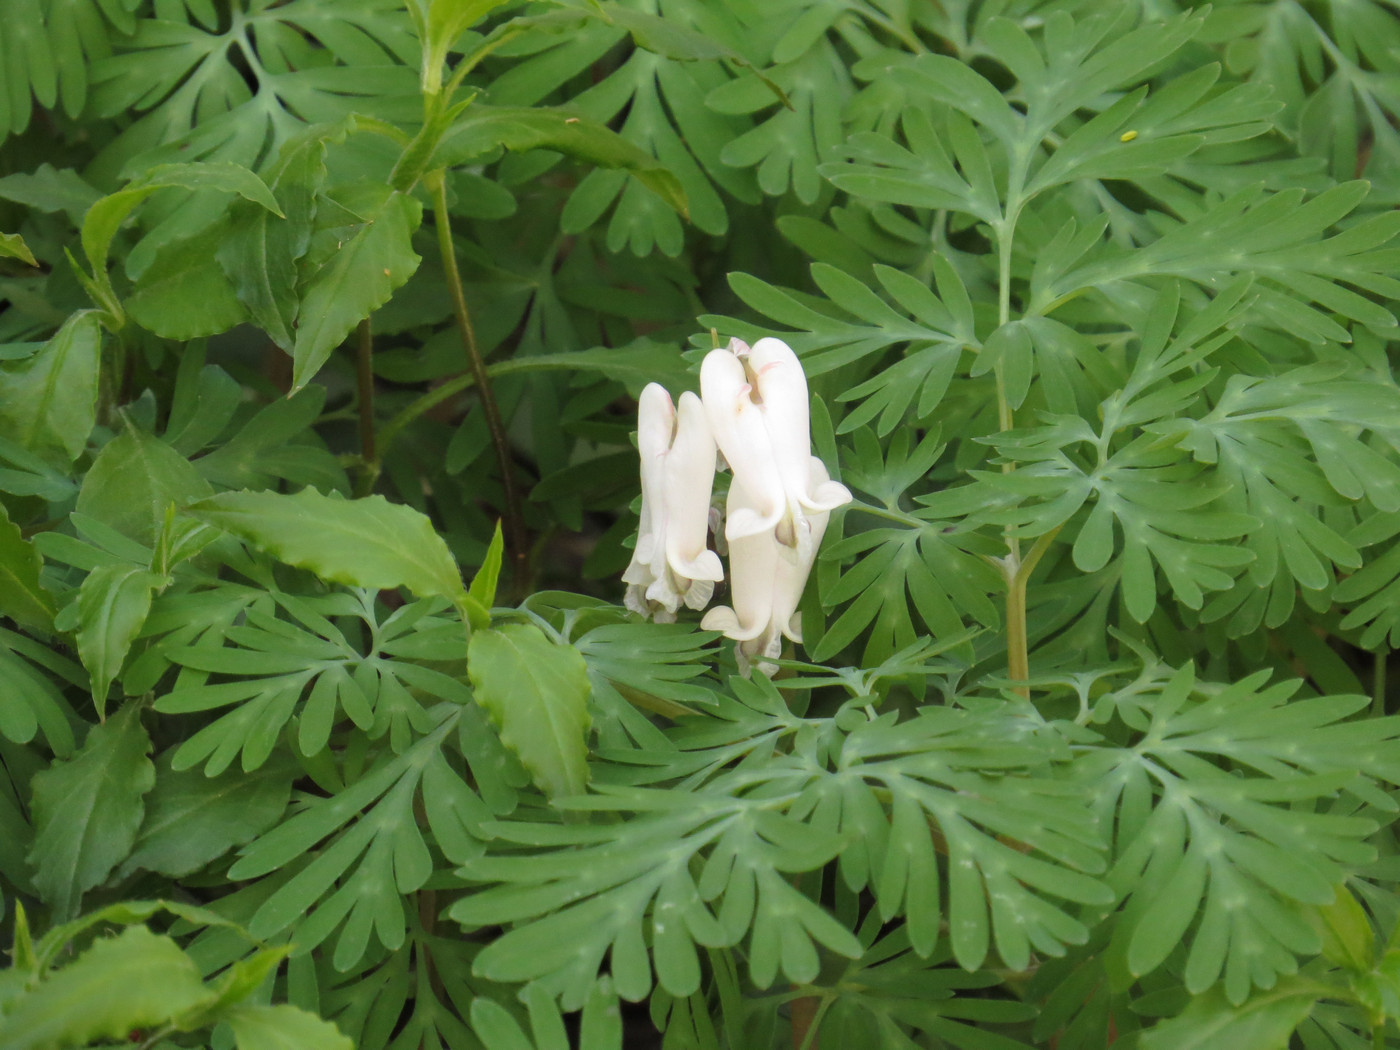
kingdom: Plantae
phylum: Tracheophyta
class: Magnoliopsida
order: Ranunculales
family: Papaveraceae
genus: Dicentra
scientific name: Dicentra canadensis
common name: Squirrel-corn
